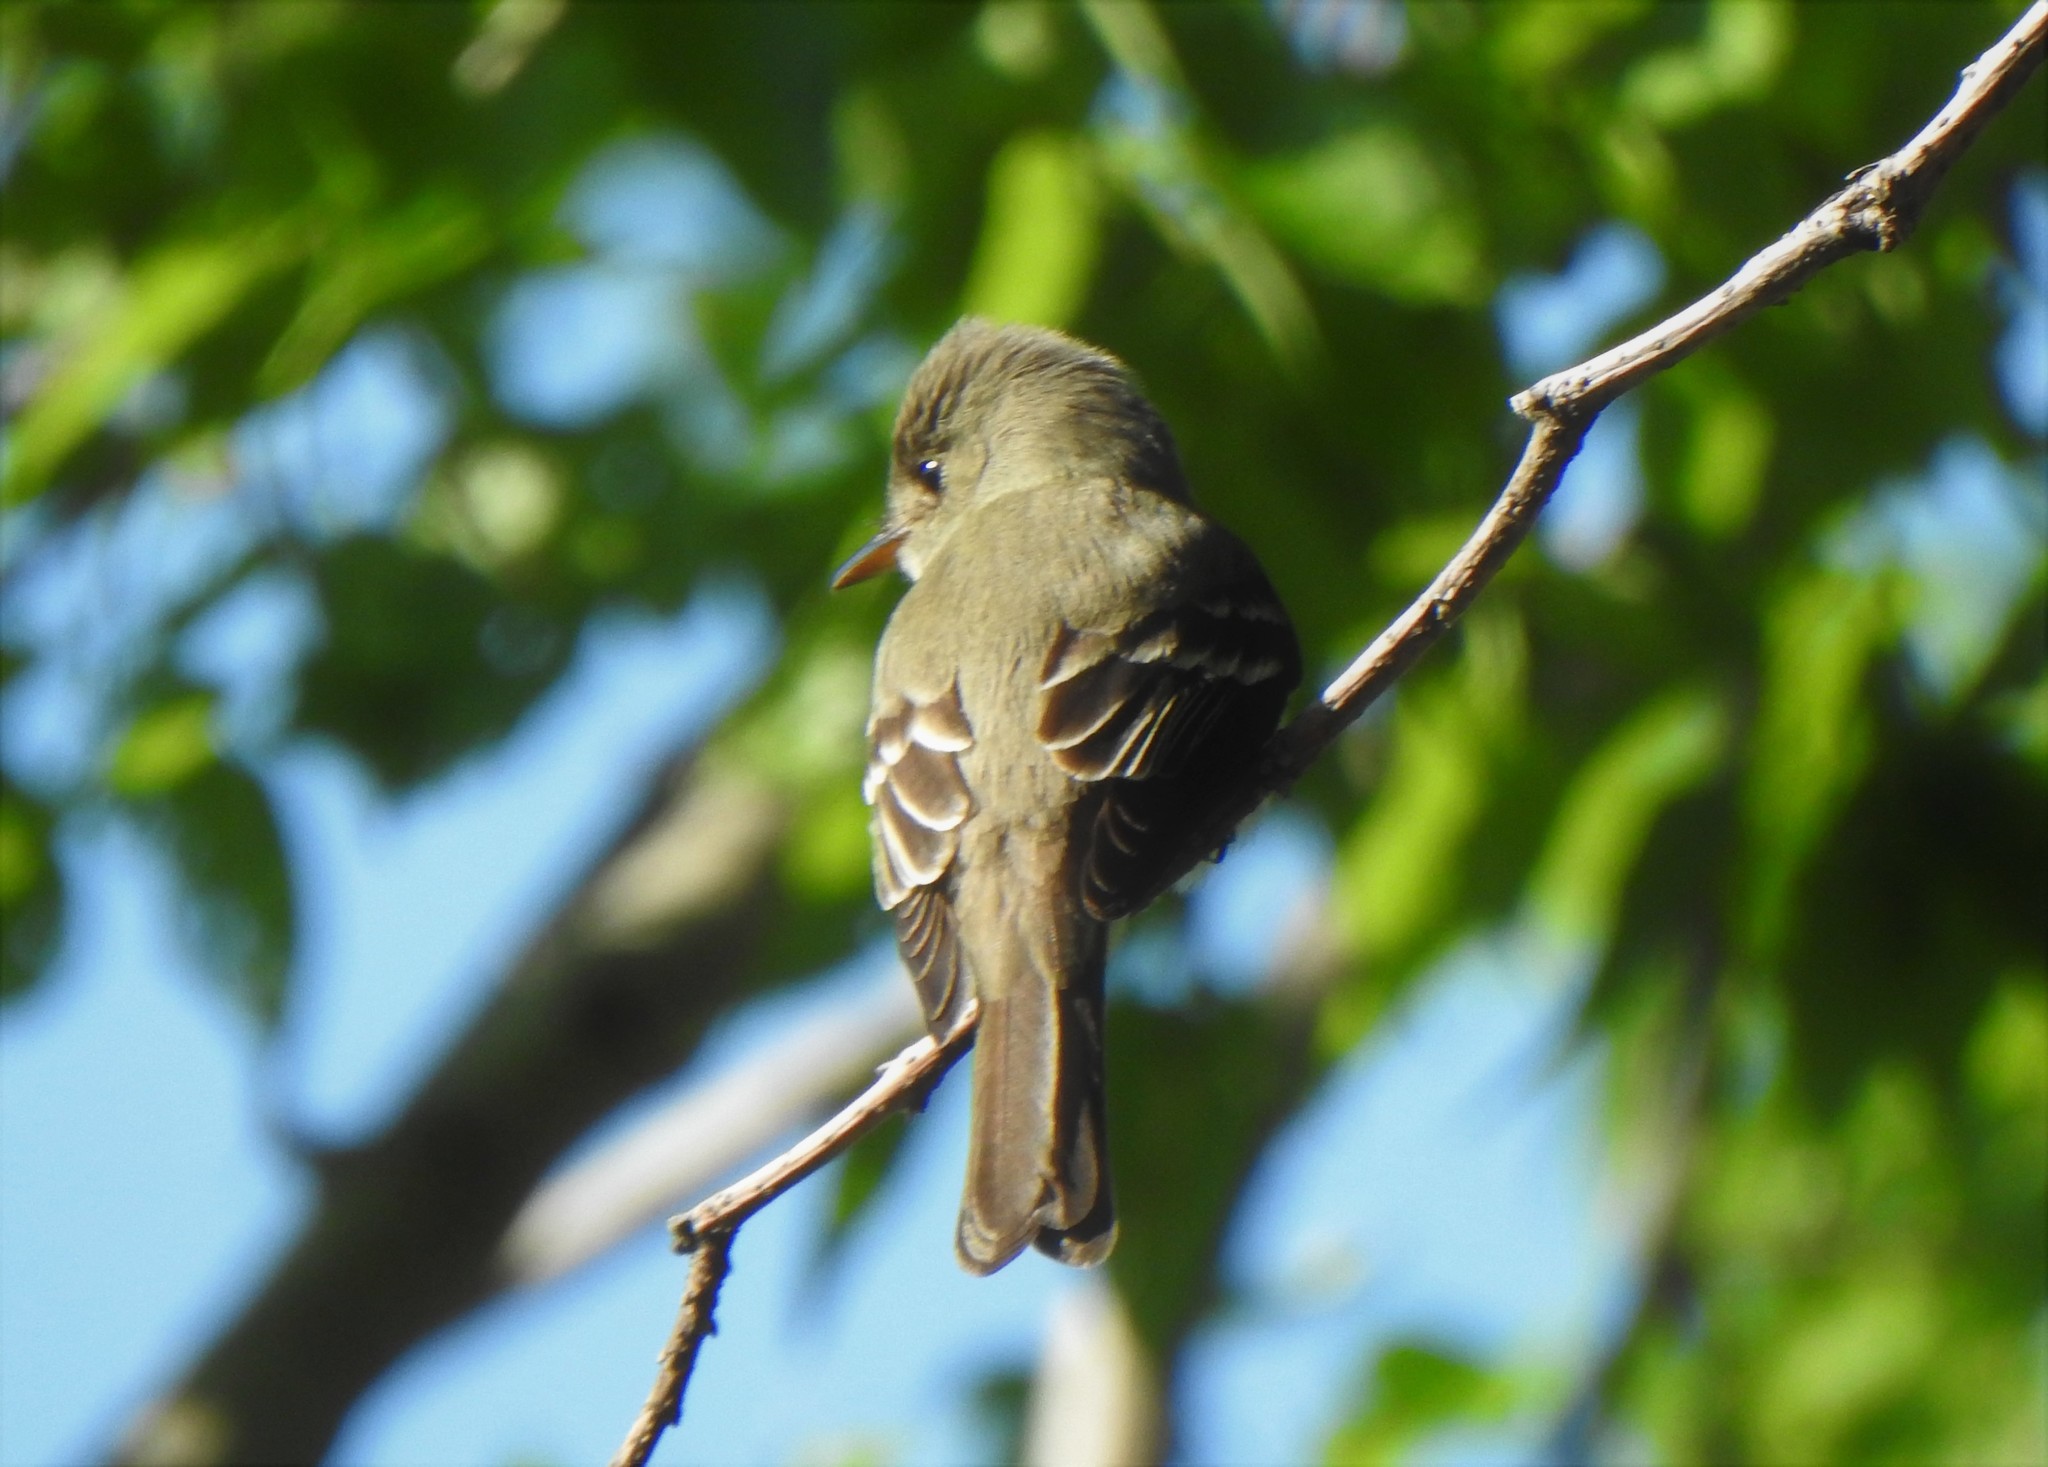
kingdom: Animalia
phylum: Chordata
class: Aves
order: Passeriformes
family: Tyrannidae
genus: Contopus
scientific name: Contopus virens
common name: Eastern wood-pewee
